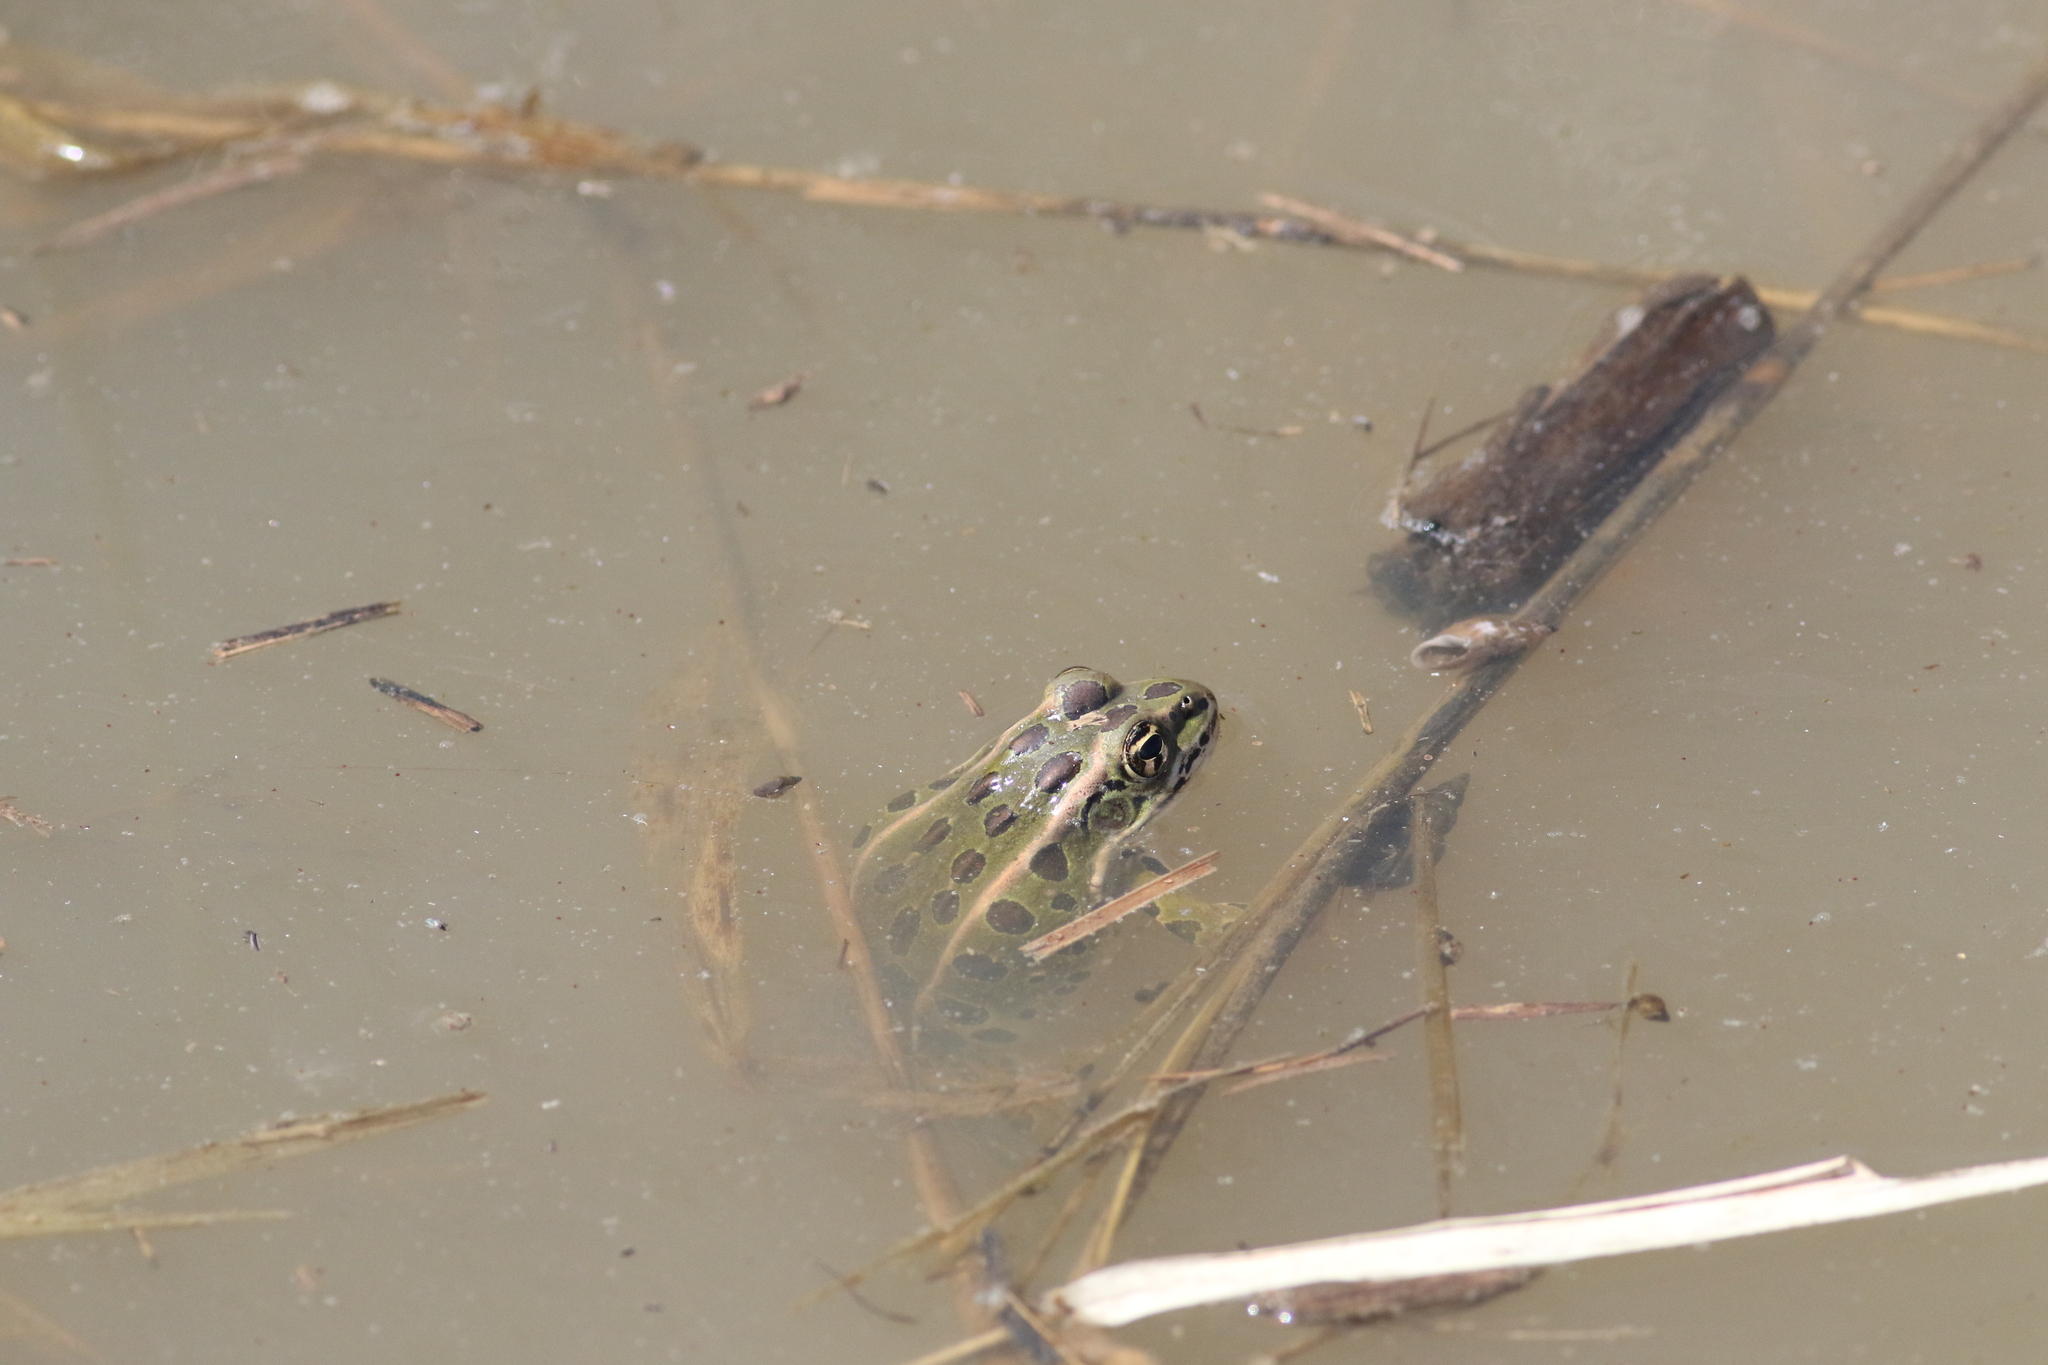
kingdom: Animalia
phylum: Chordata
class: Amphibia
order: Anura
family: Ranidae
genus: Lithobates
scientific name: Lithobates pipiens
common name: Northern leopard frog
